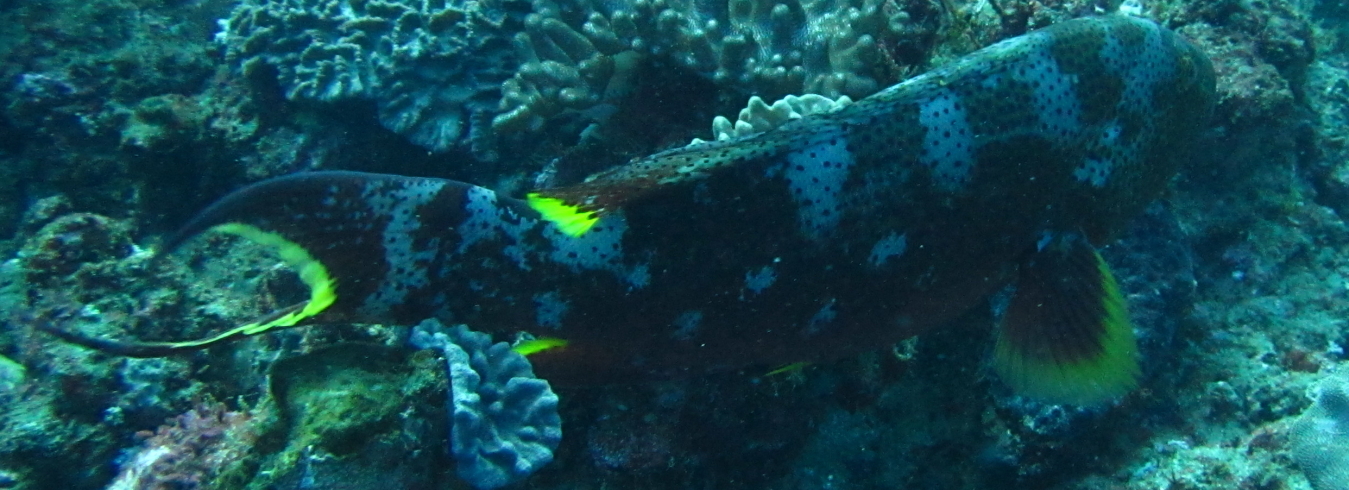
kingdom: Animalia
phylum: Chordata
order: Perciformes
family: Serranidae
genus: Variola
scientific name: Variola louti
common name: Yellow-edged lyretail
